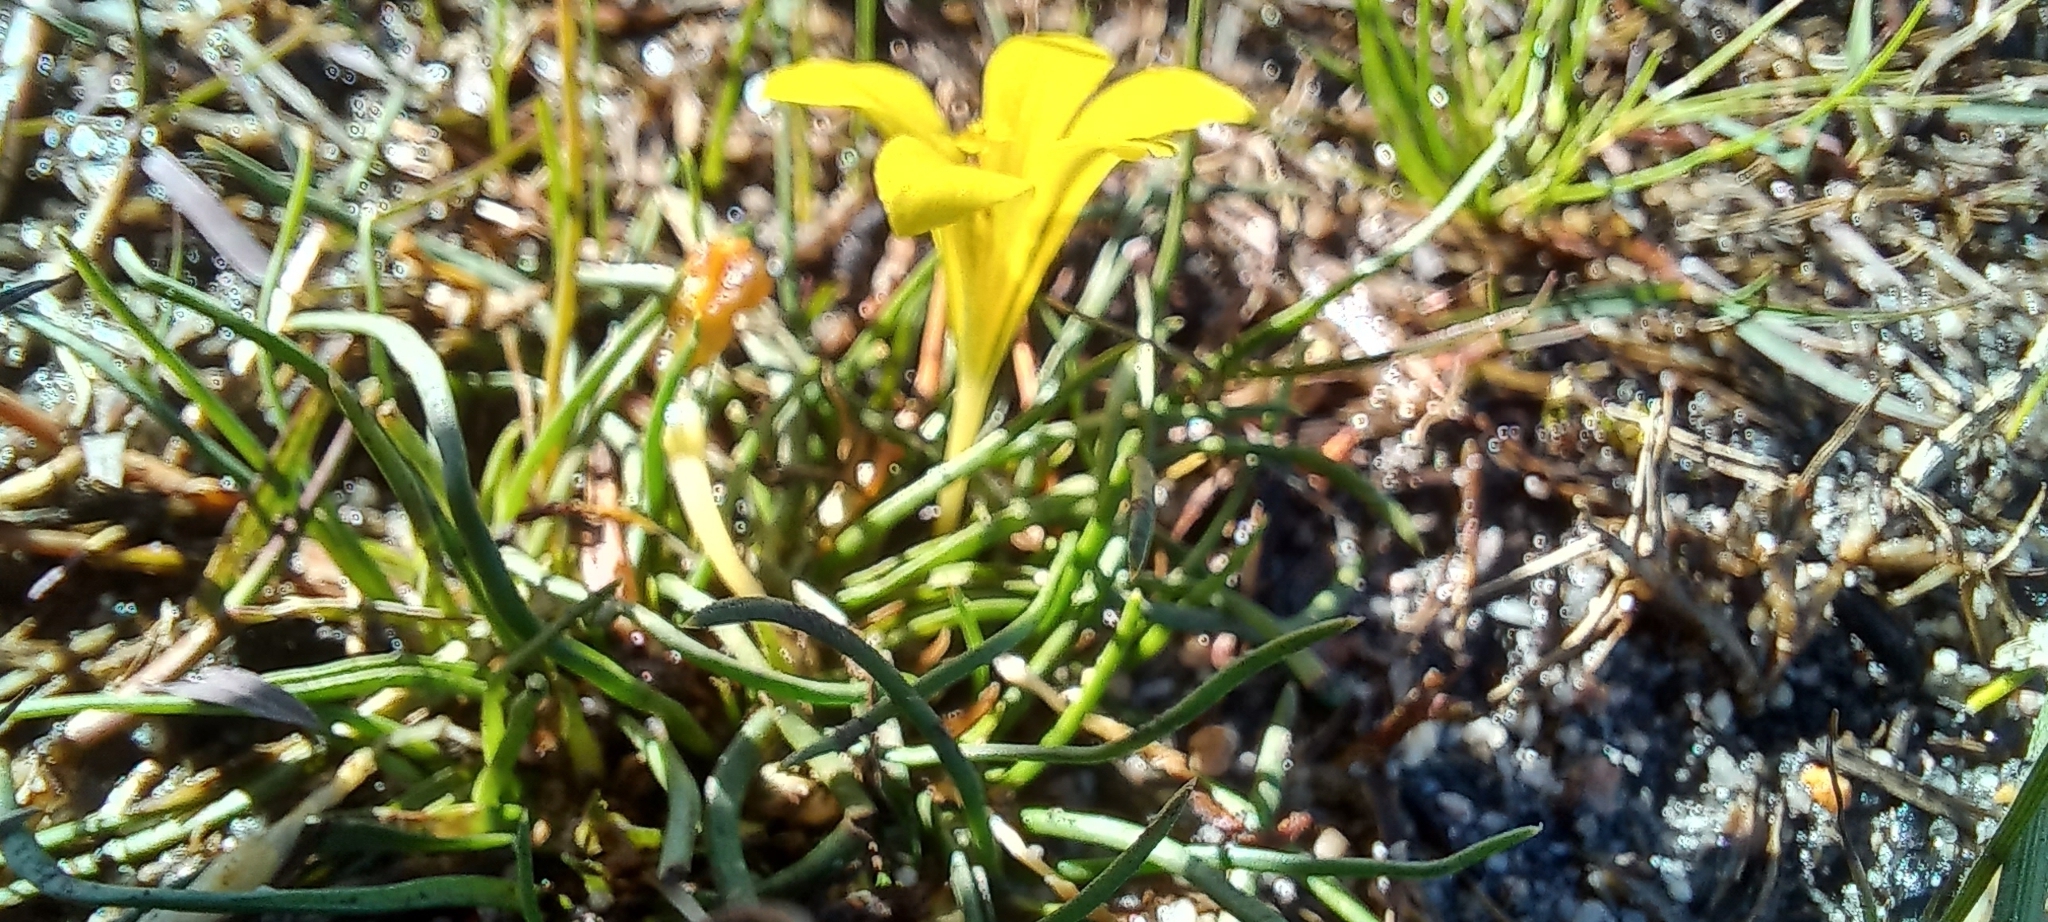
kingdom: Plantae
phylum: Tracheophyta
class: Liliopsida
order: Asparagales
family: Iridaceae
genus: Moraea
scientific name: Moraea fugacissima
